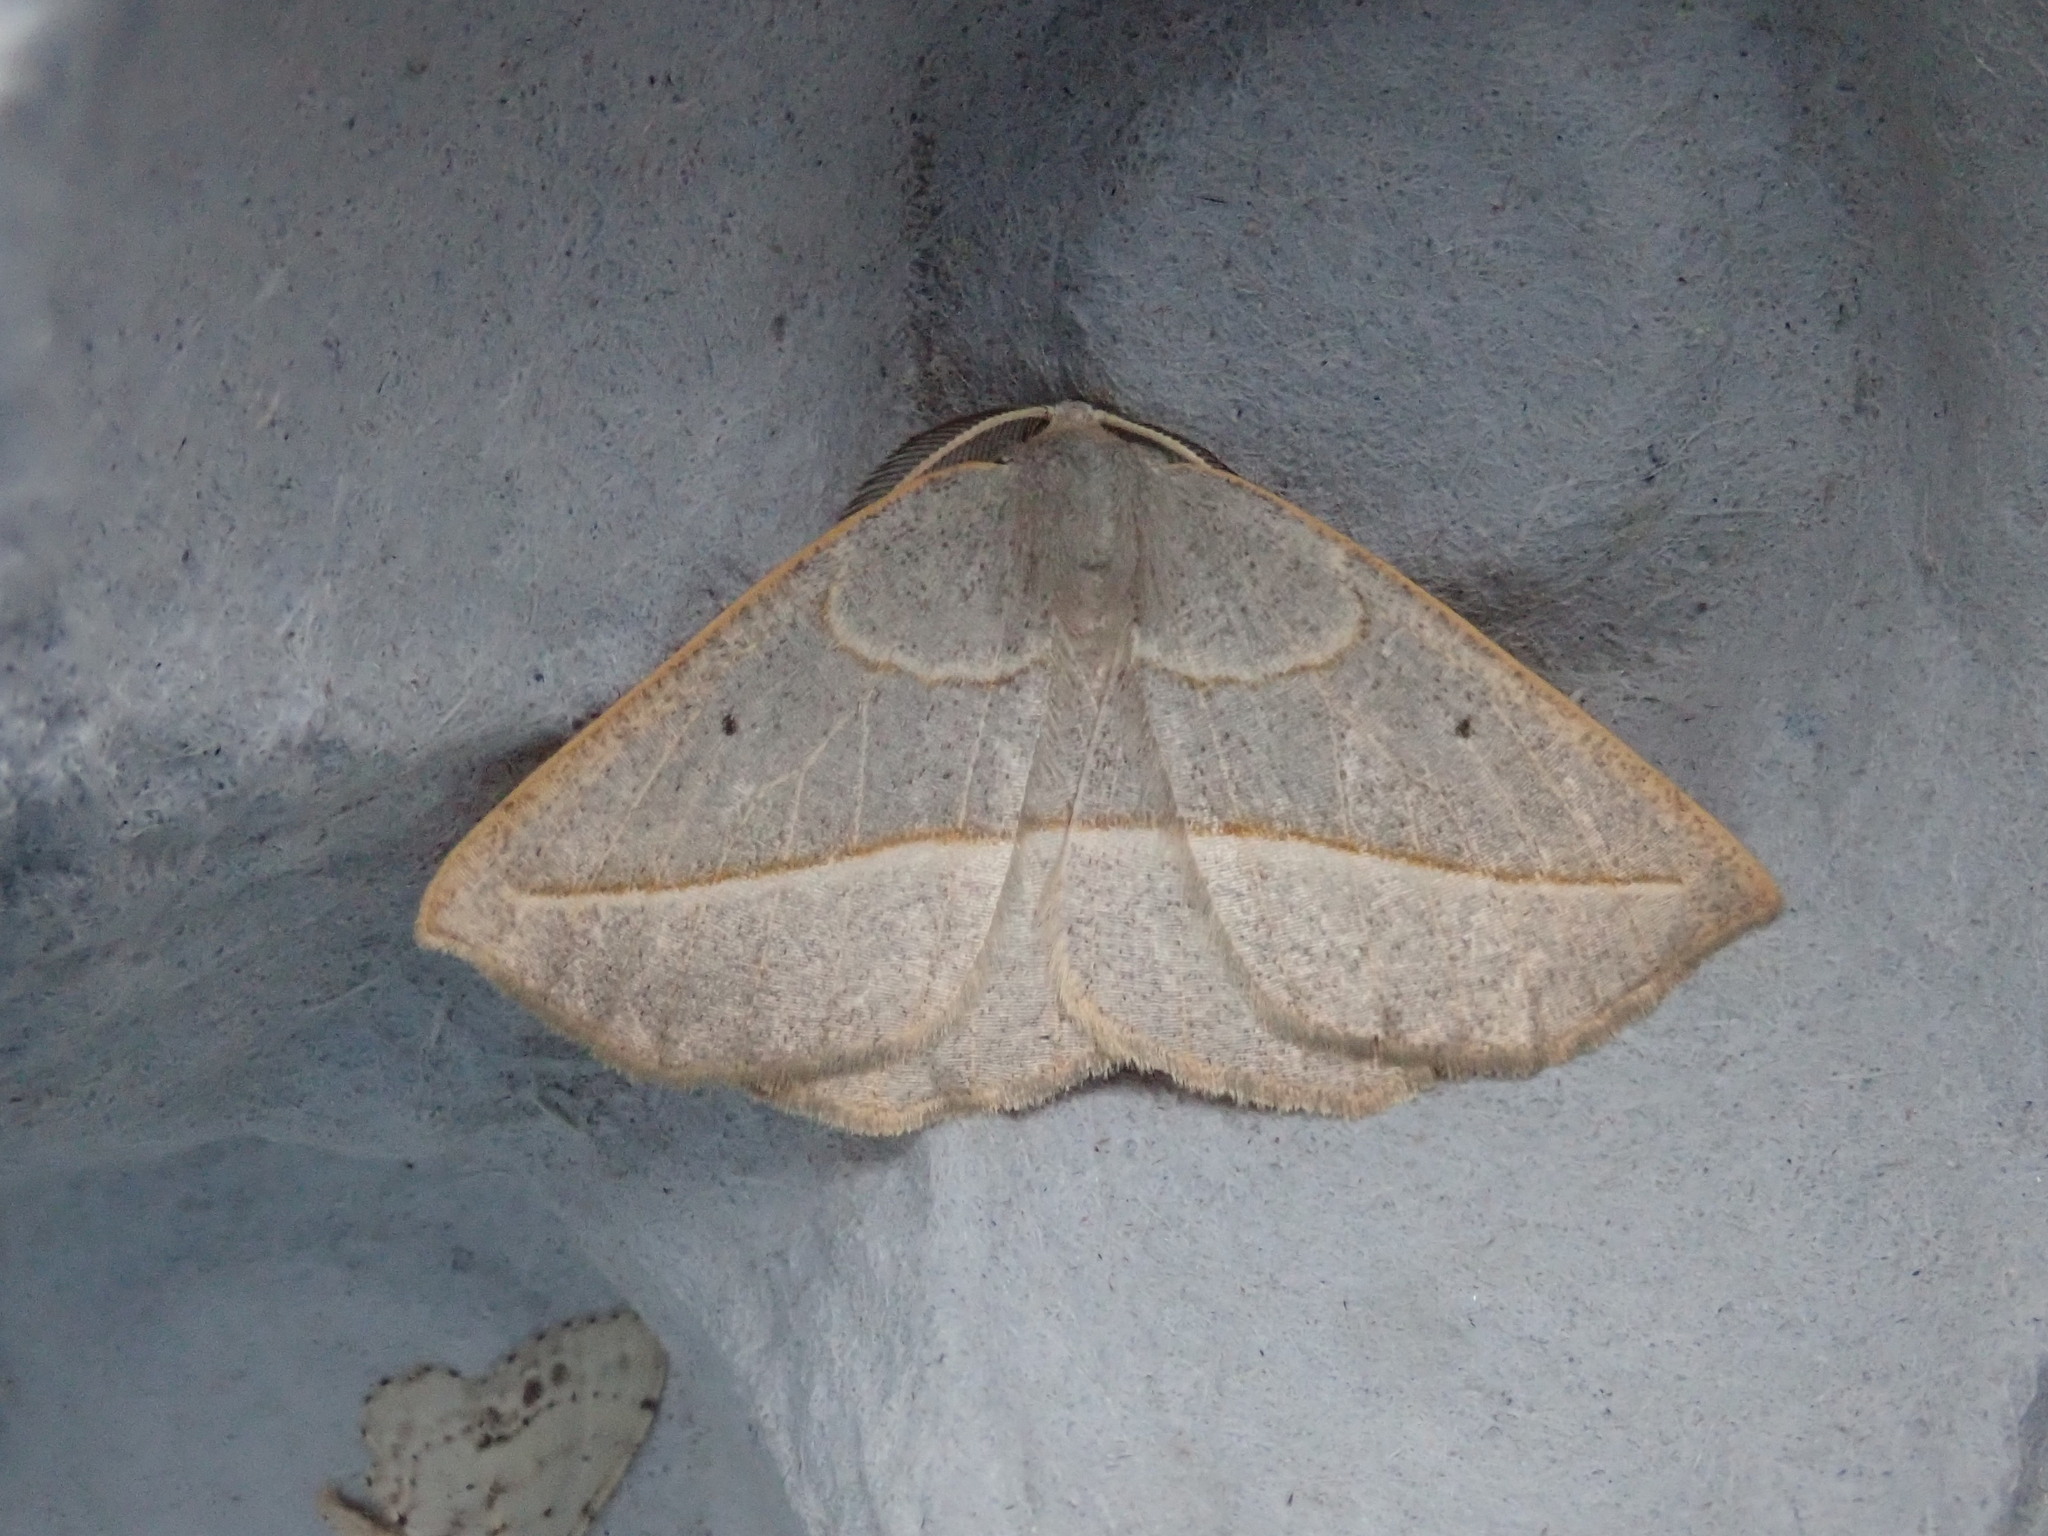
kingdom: Animalia
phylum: Arthropoda
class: Insecta
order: Lepidoptera
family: Geometridae
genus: Eusarca
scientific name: Eusarca confusaria
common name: Confused eusarca
